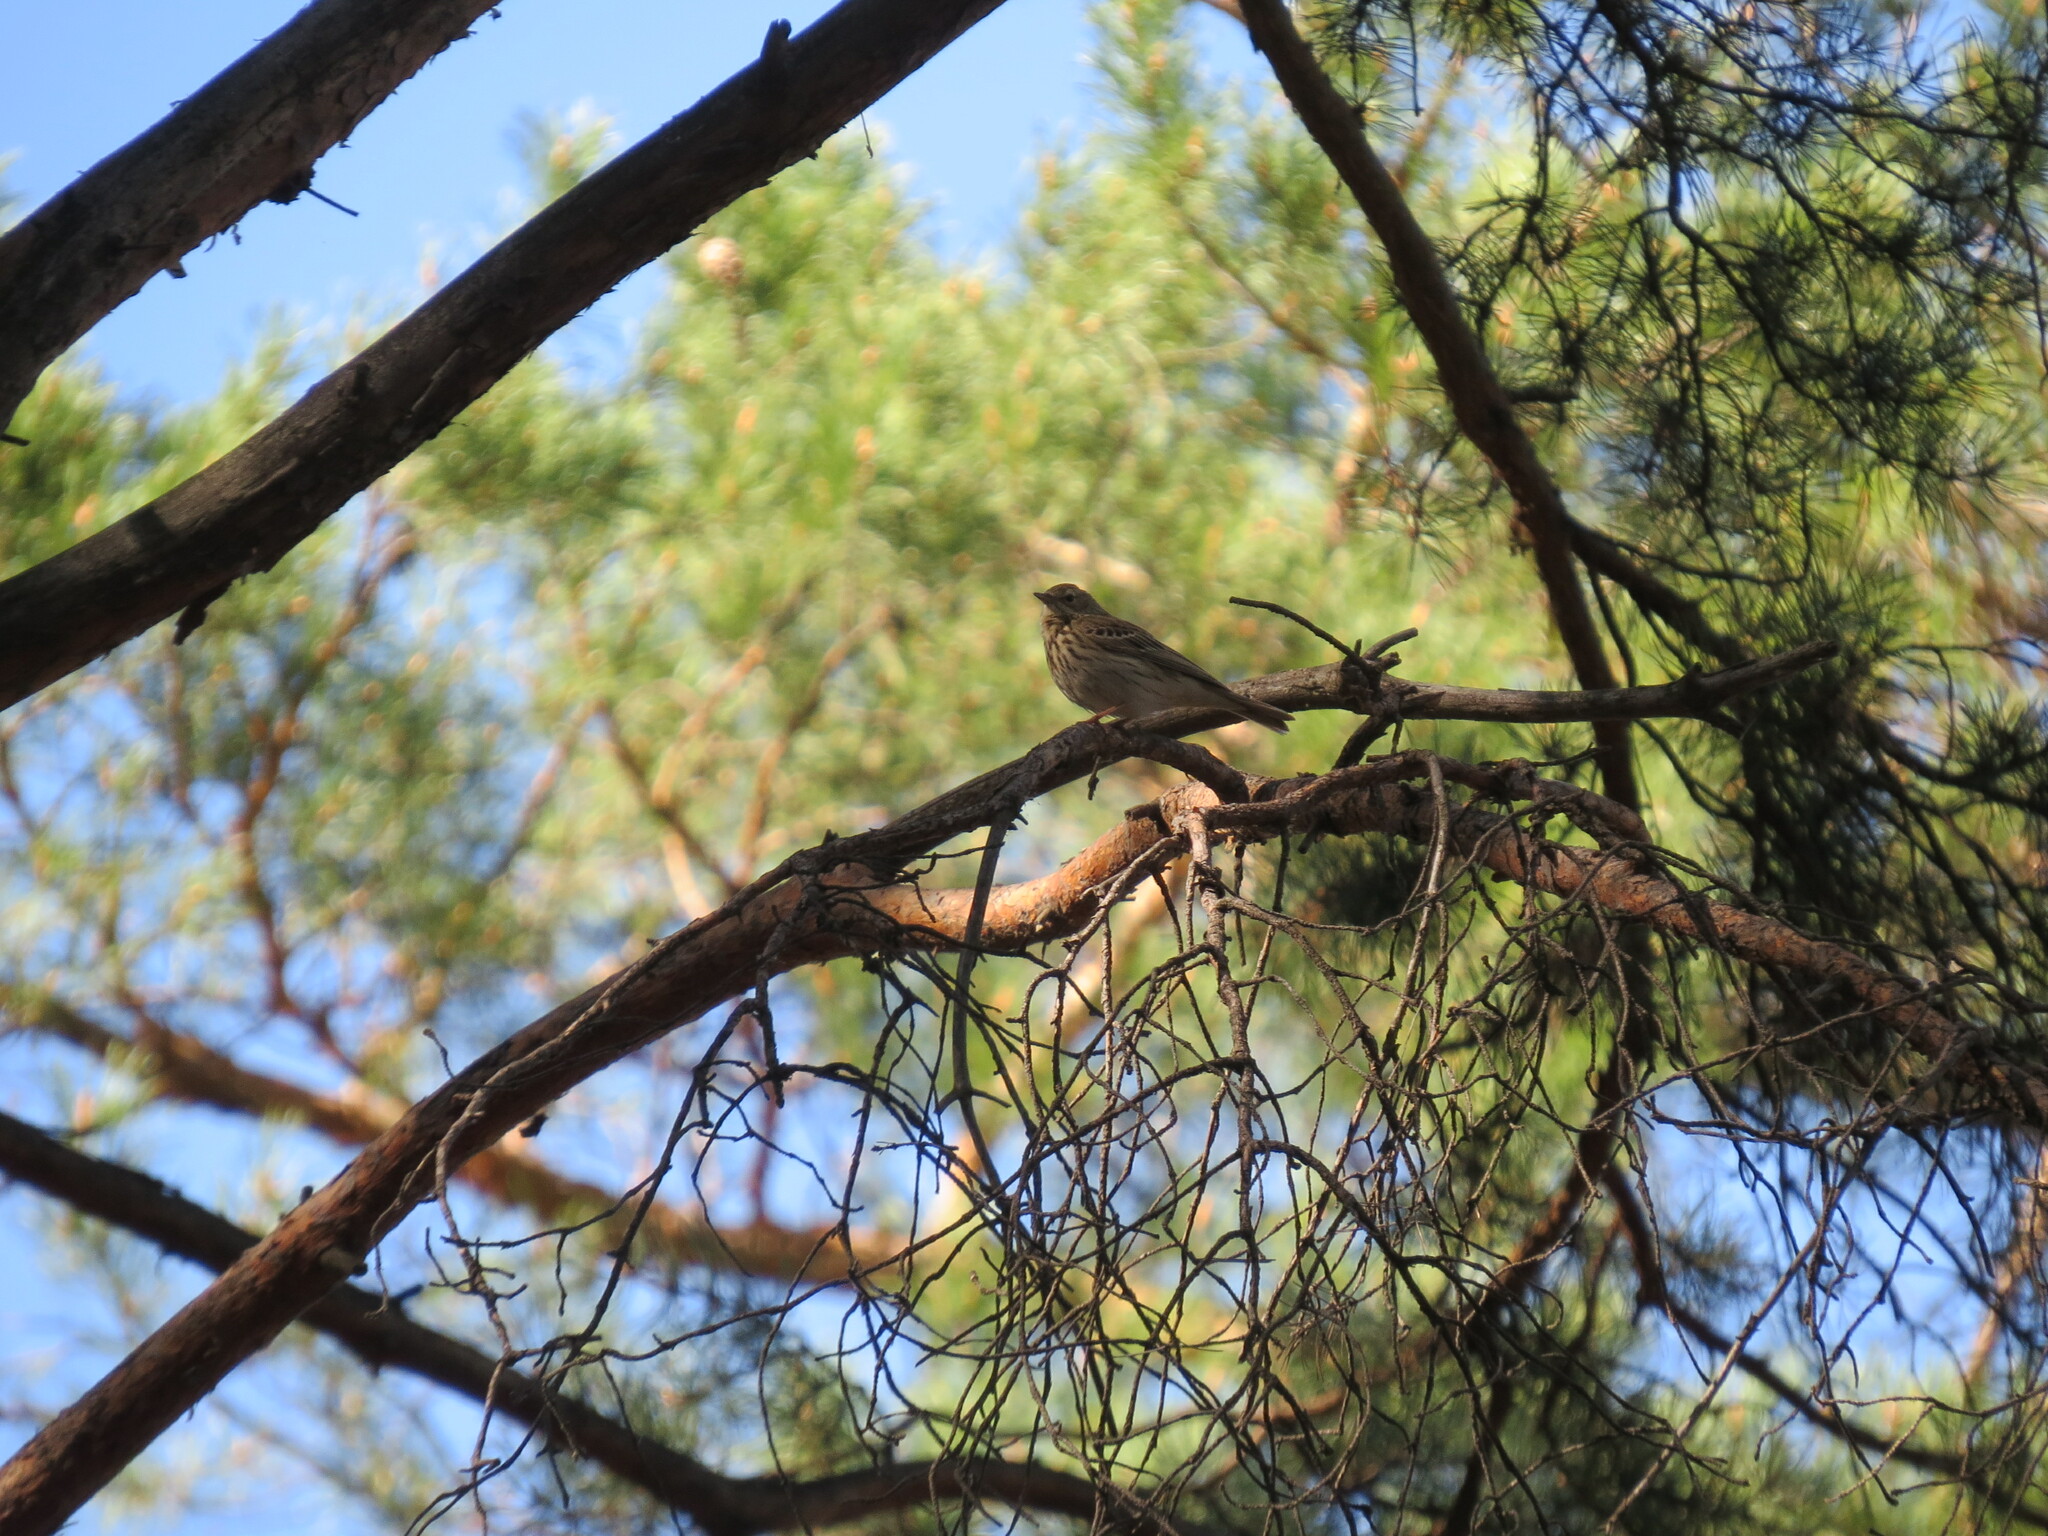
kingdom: Animalia
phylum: Chordata
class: Aves
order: Passeriformes
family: Motacillidae
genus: Anthus
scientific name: Anthus trivialis
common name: Tree pipit
